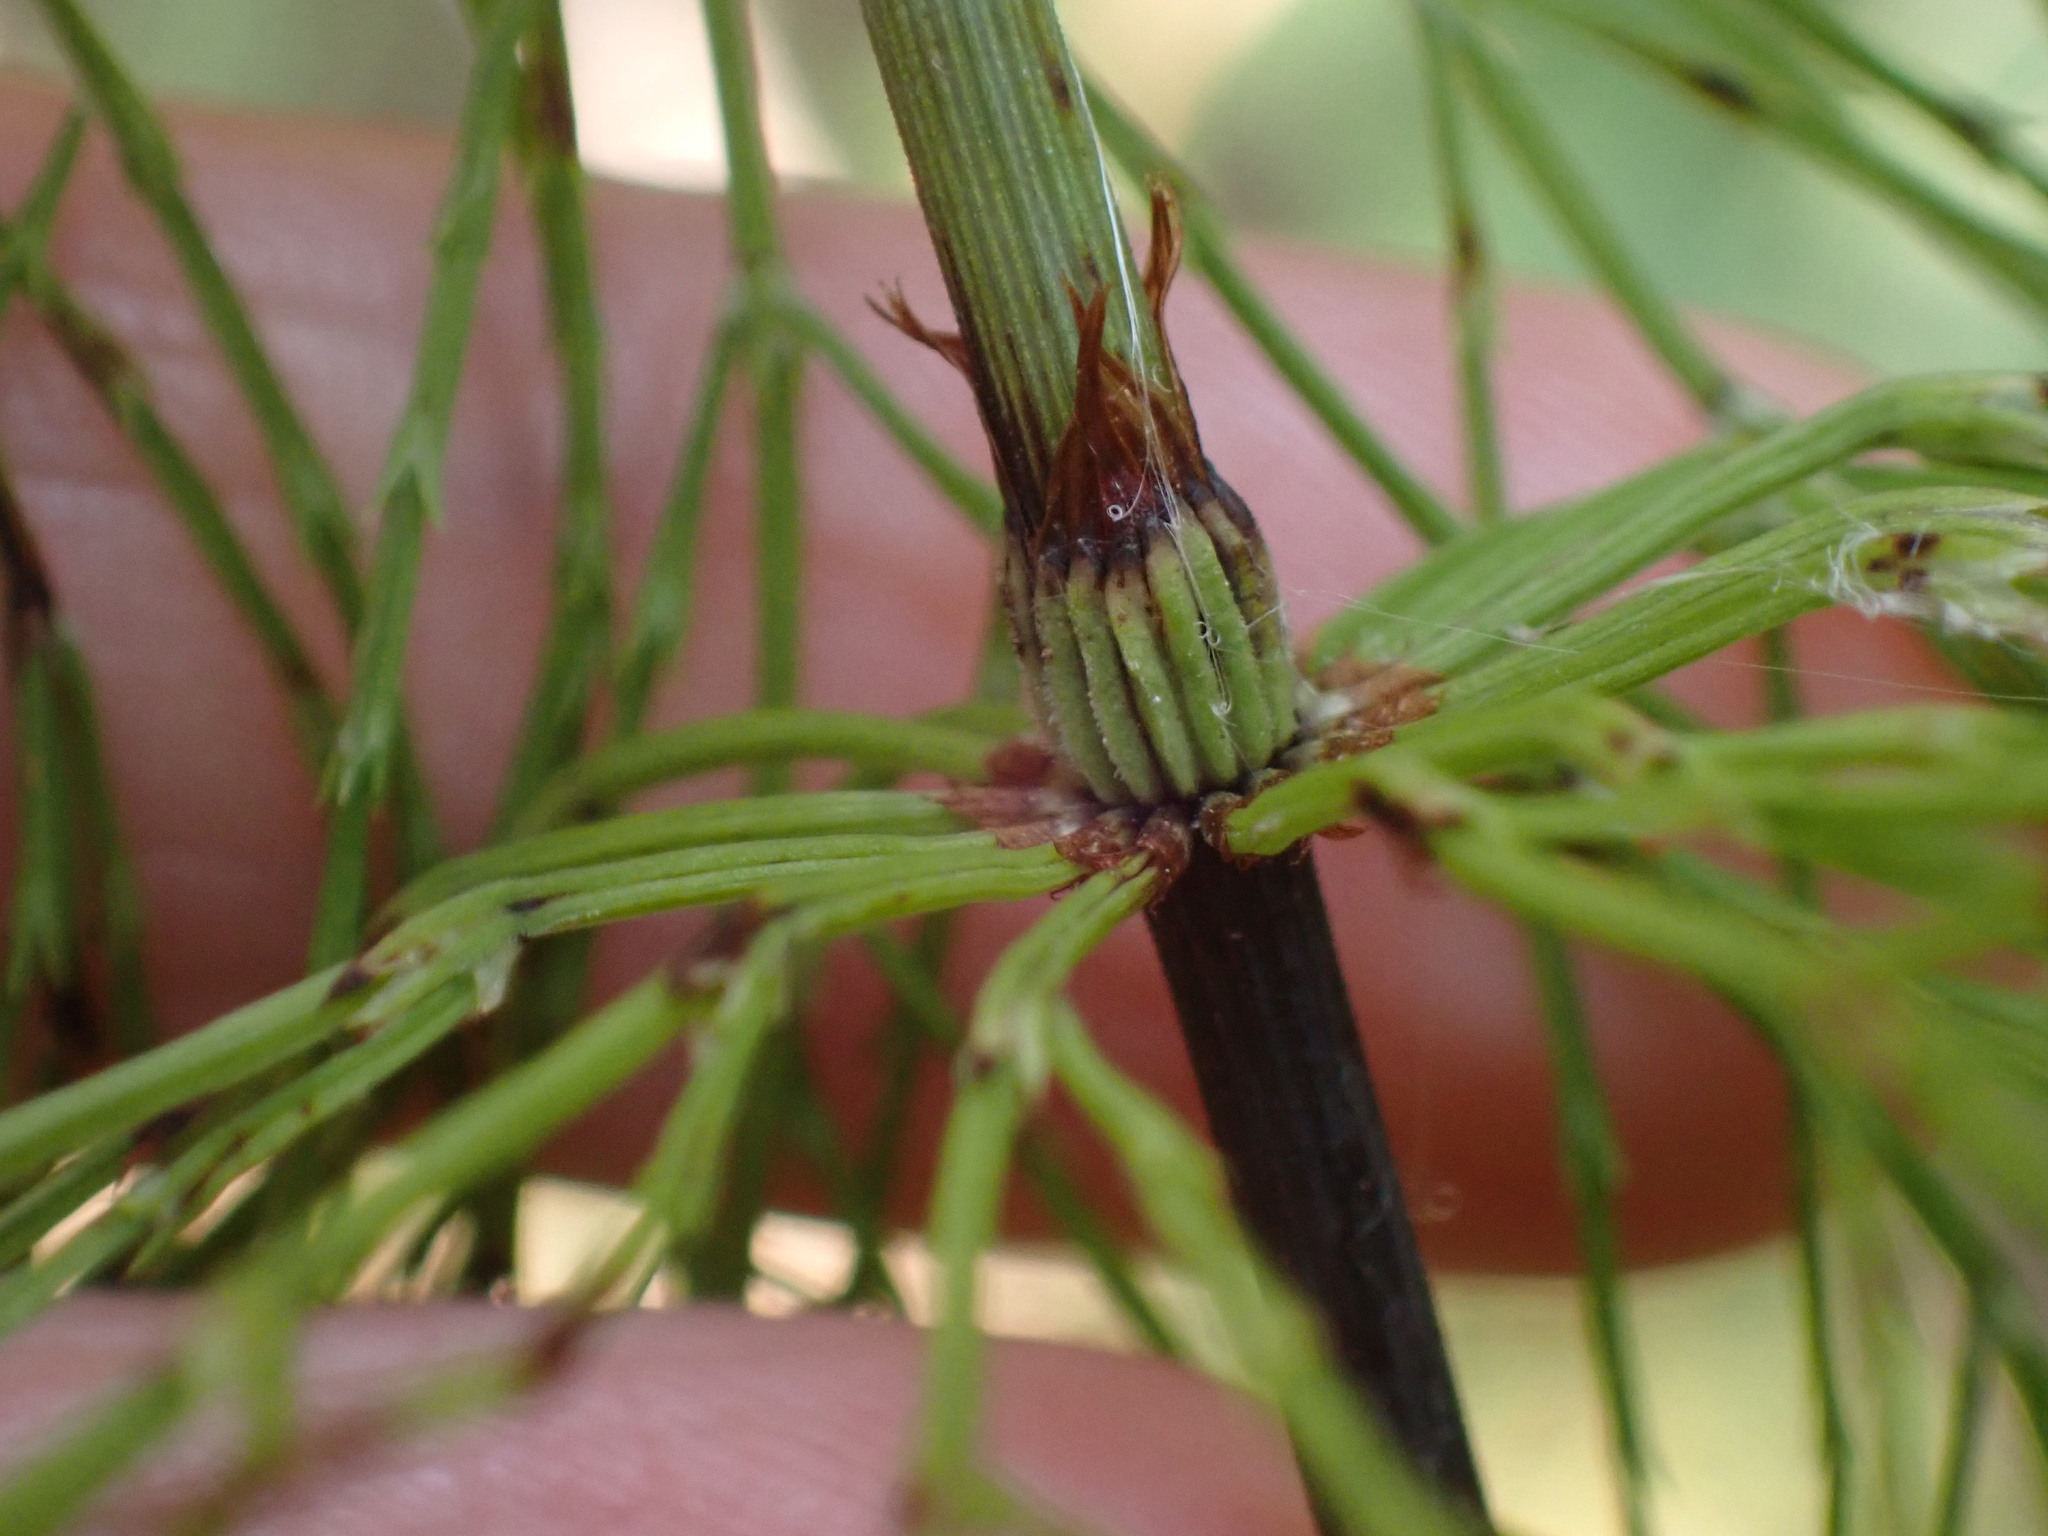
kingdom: Plantae
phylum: Tracheophyta
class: Polypodiopsida
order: Equisetales
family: Equisetaceae
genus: Equisetum
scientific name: Equisetum sylvaticum
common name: Wood horsetail
